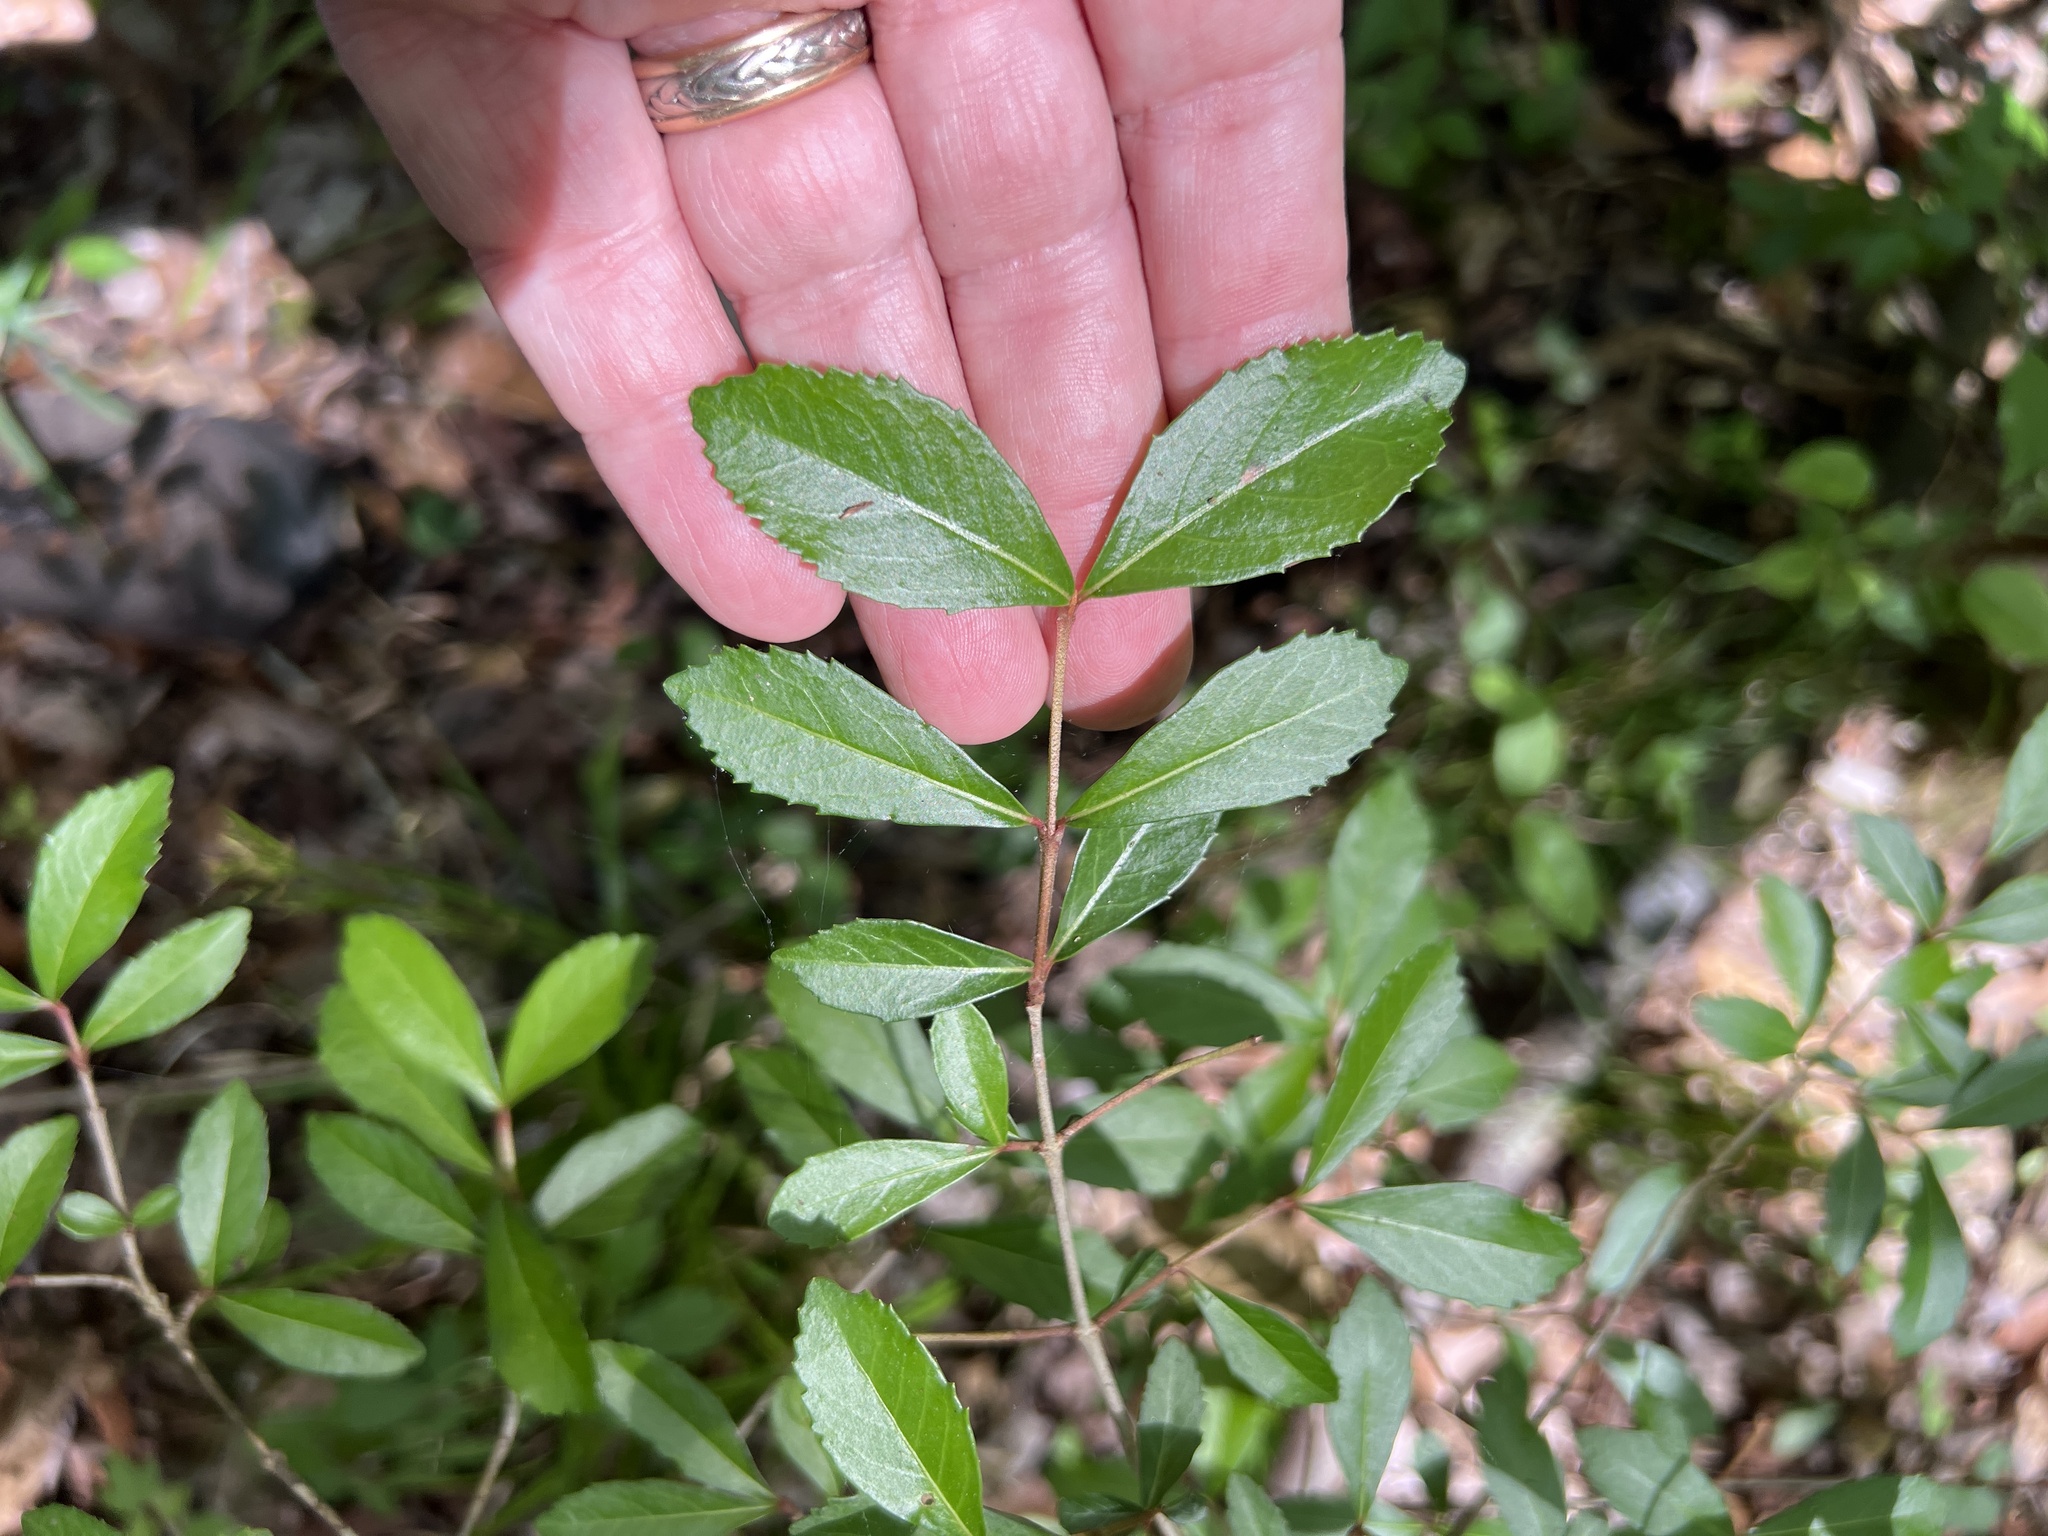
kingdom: Plantae
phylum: Tracheophyta
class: Magnoliopsida
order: Dipsacales
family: Viburnaceae
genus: Viburnum
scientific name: Viburnum obovatum
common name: Walter's viburnum
